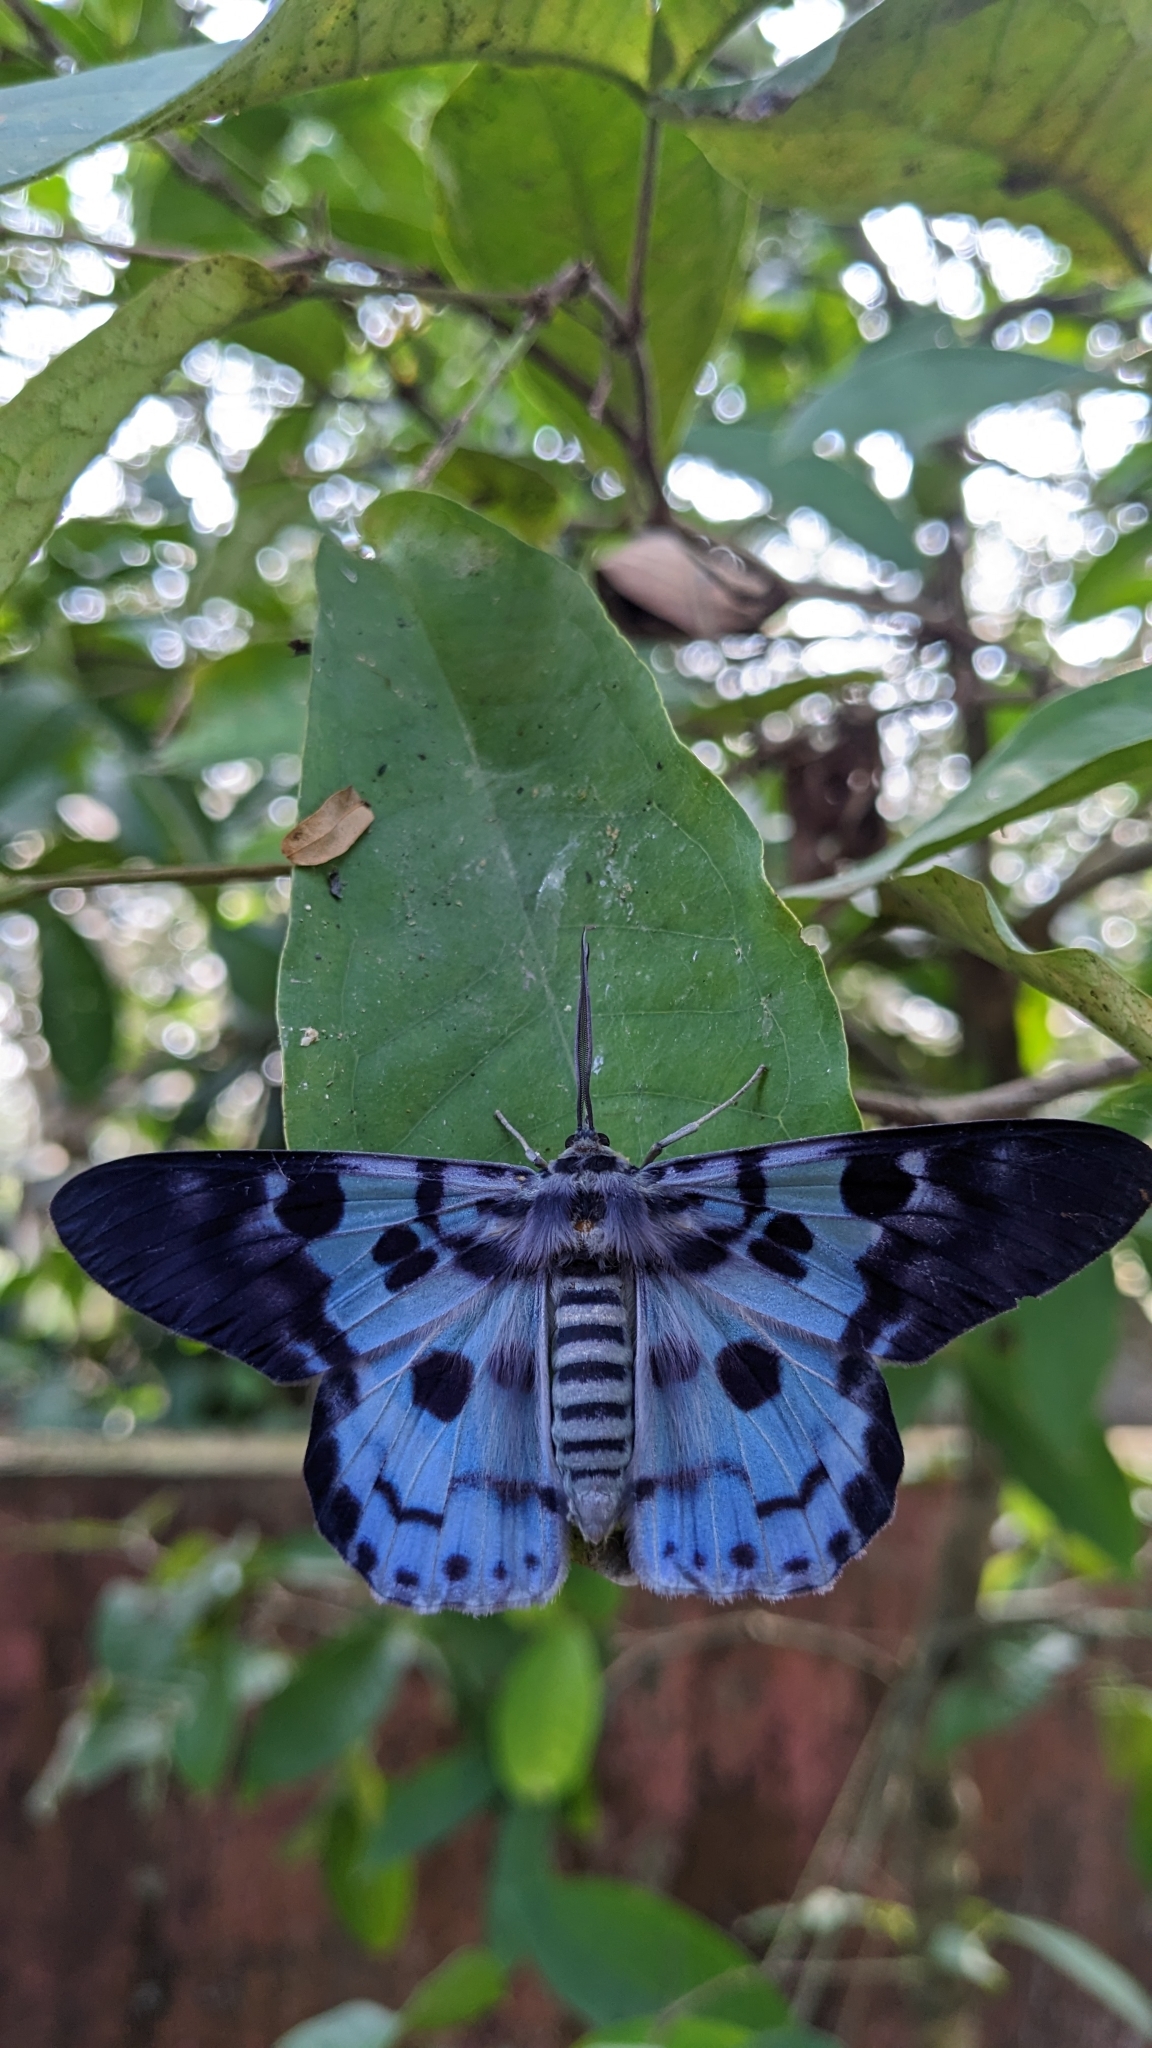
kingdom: Animalia
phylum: Arthropoda
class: Insecta
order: Lepidoptera
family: Geometridae
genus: Dysphania
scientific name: Dysphania percota
